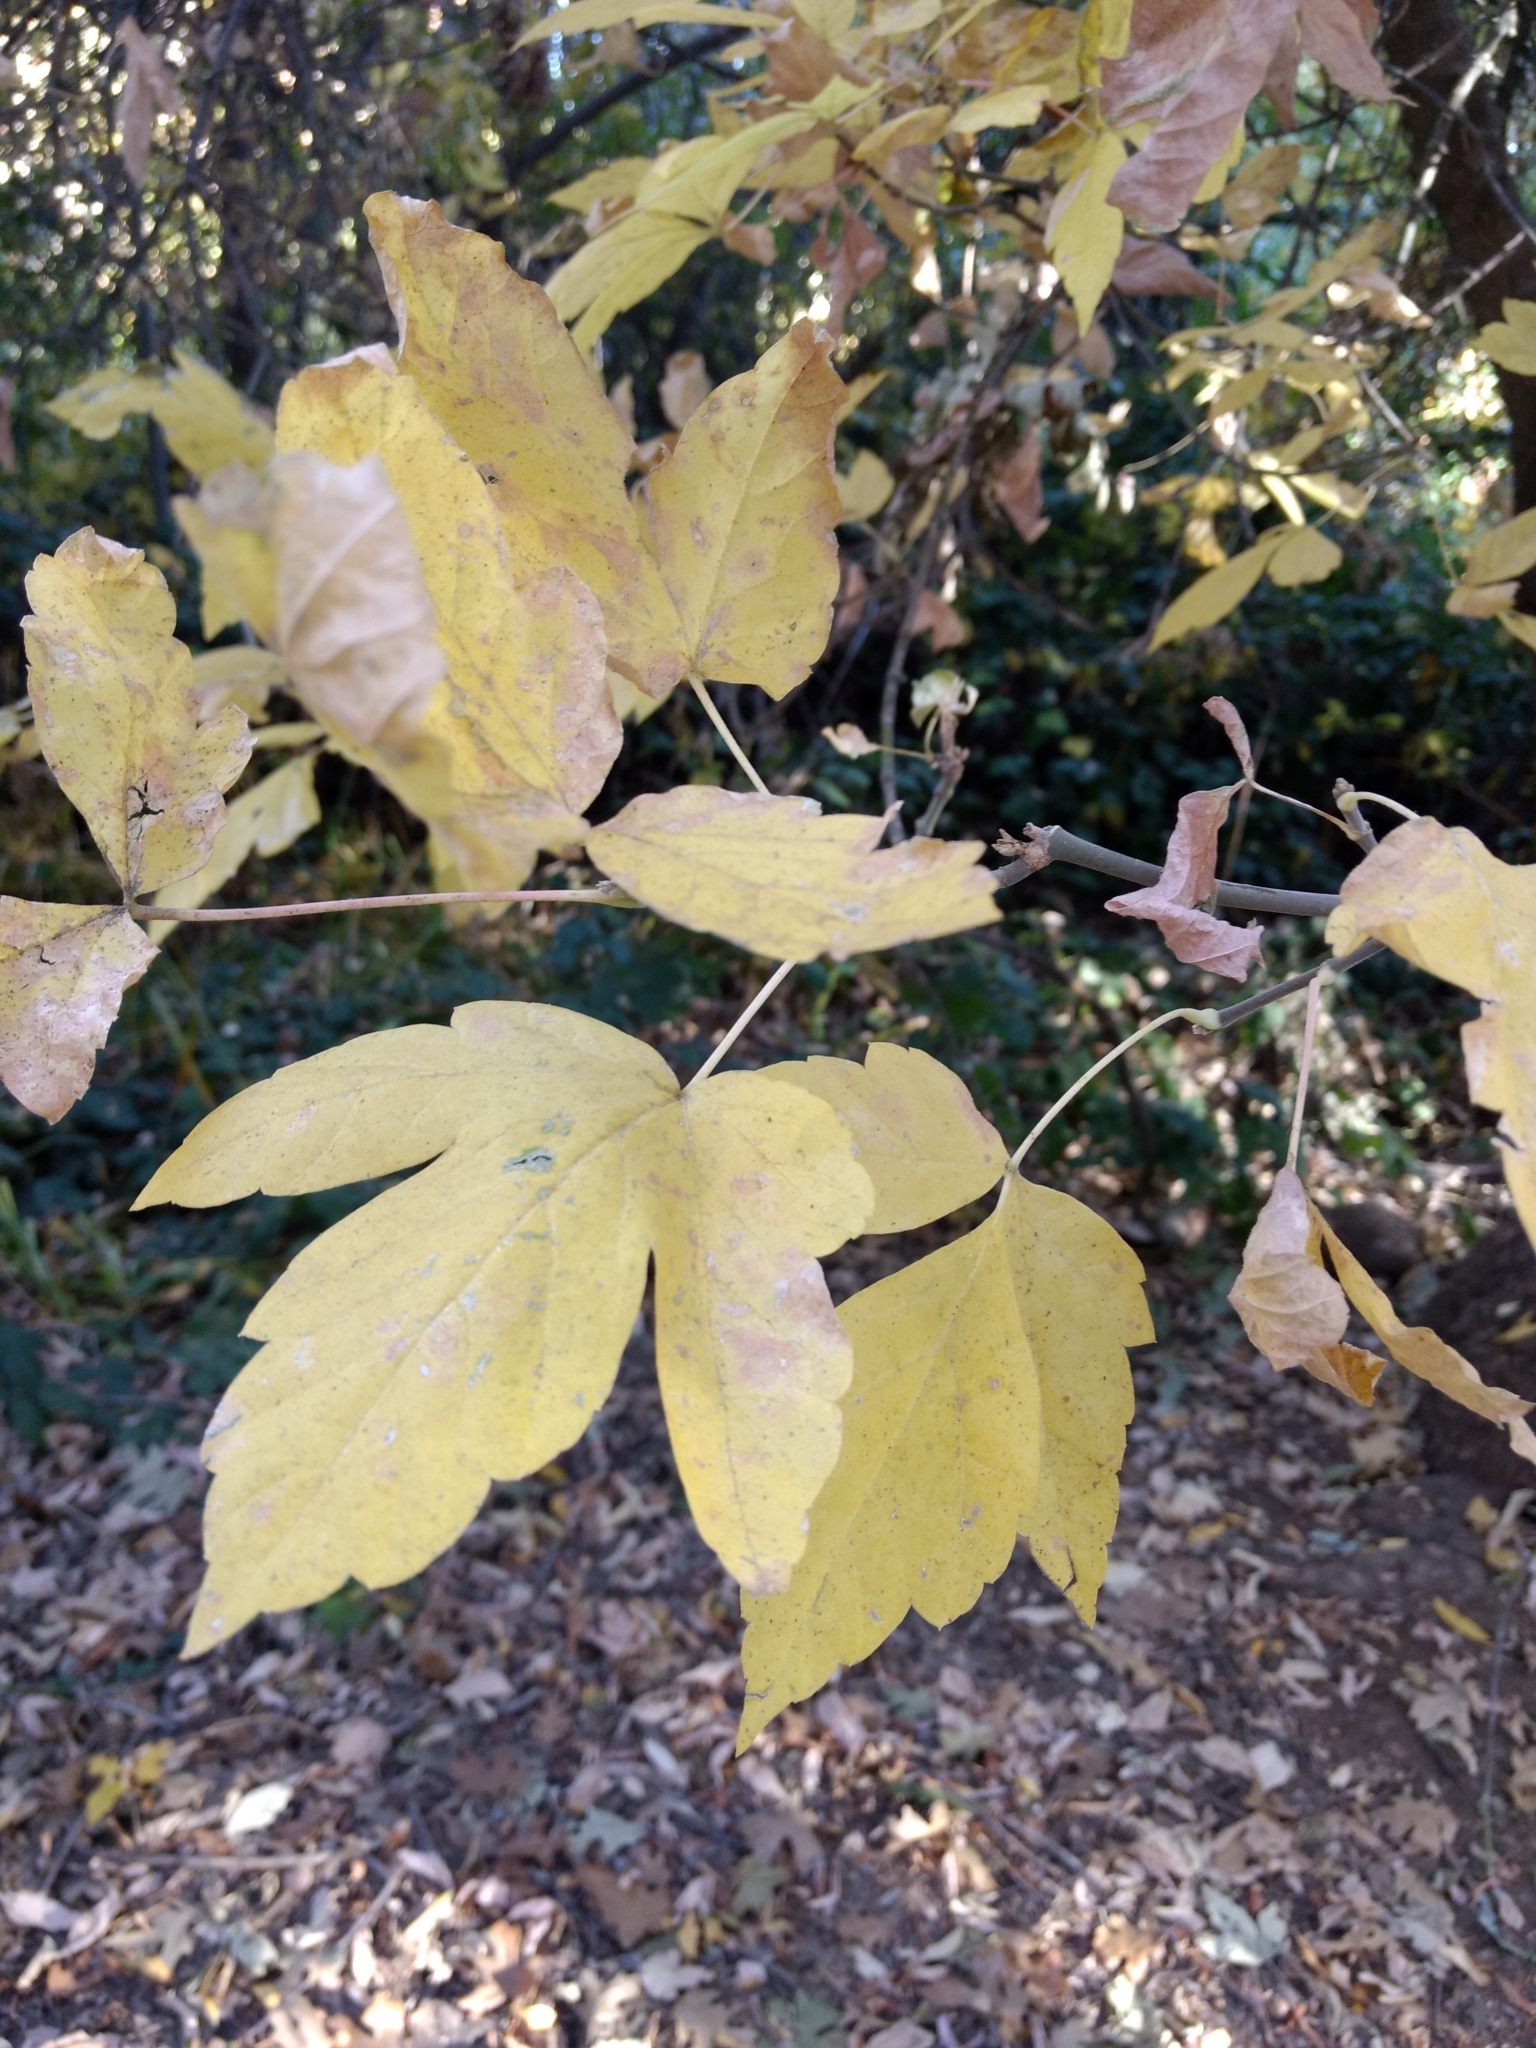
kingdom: Plantae
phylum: Tracheophyta
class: Magnoliopsida
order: Sapindales
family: Sapindaceae
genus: Acer
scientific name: Acer negundo
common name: Ashleaf maple
